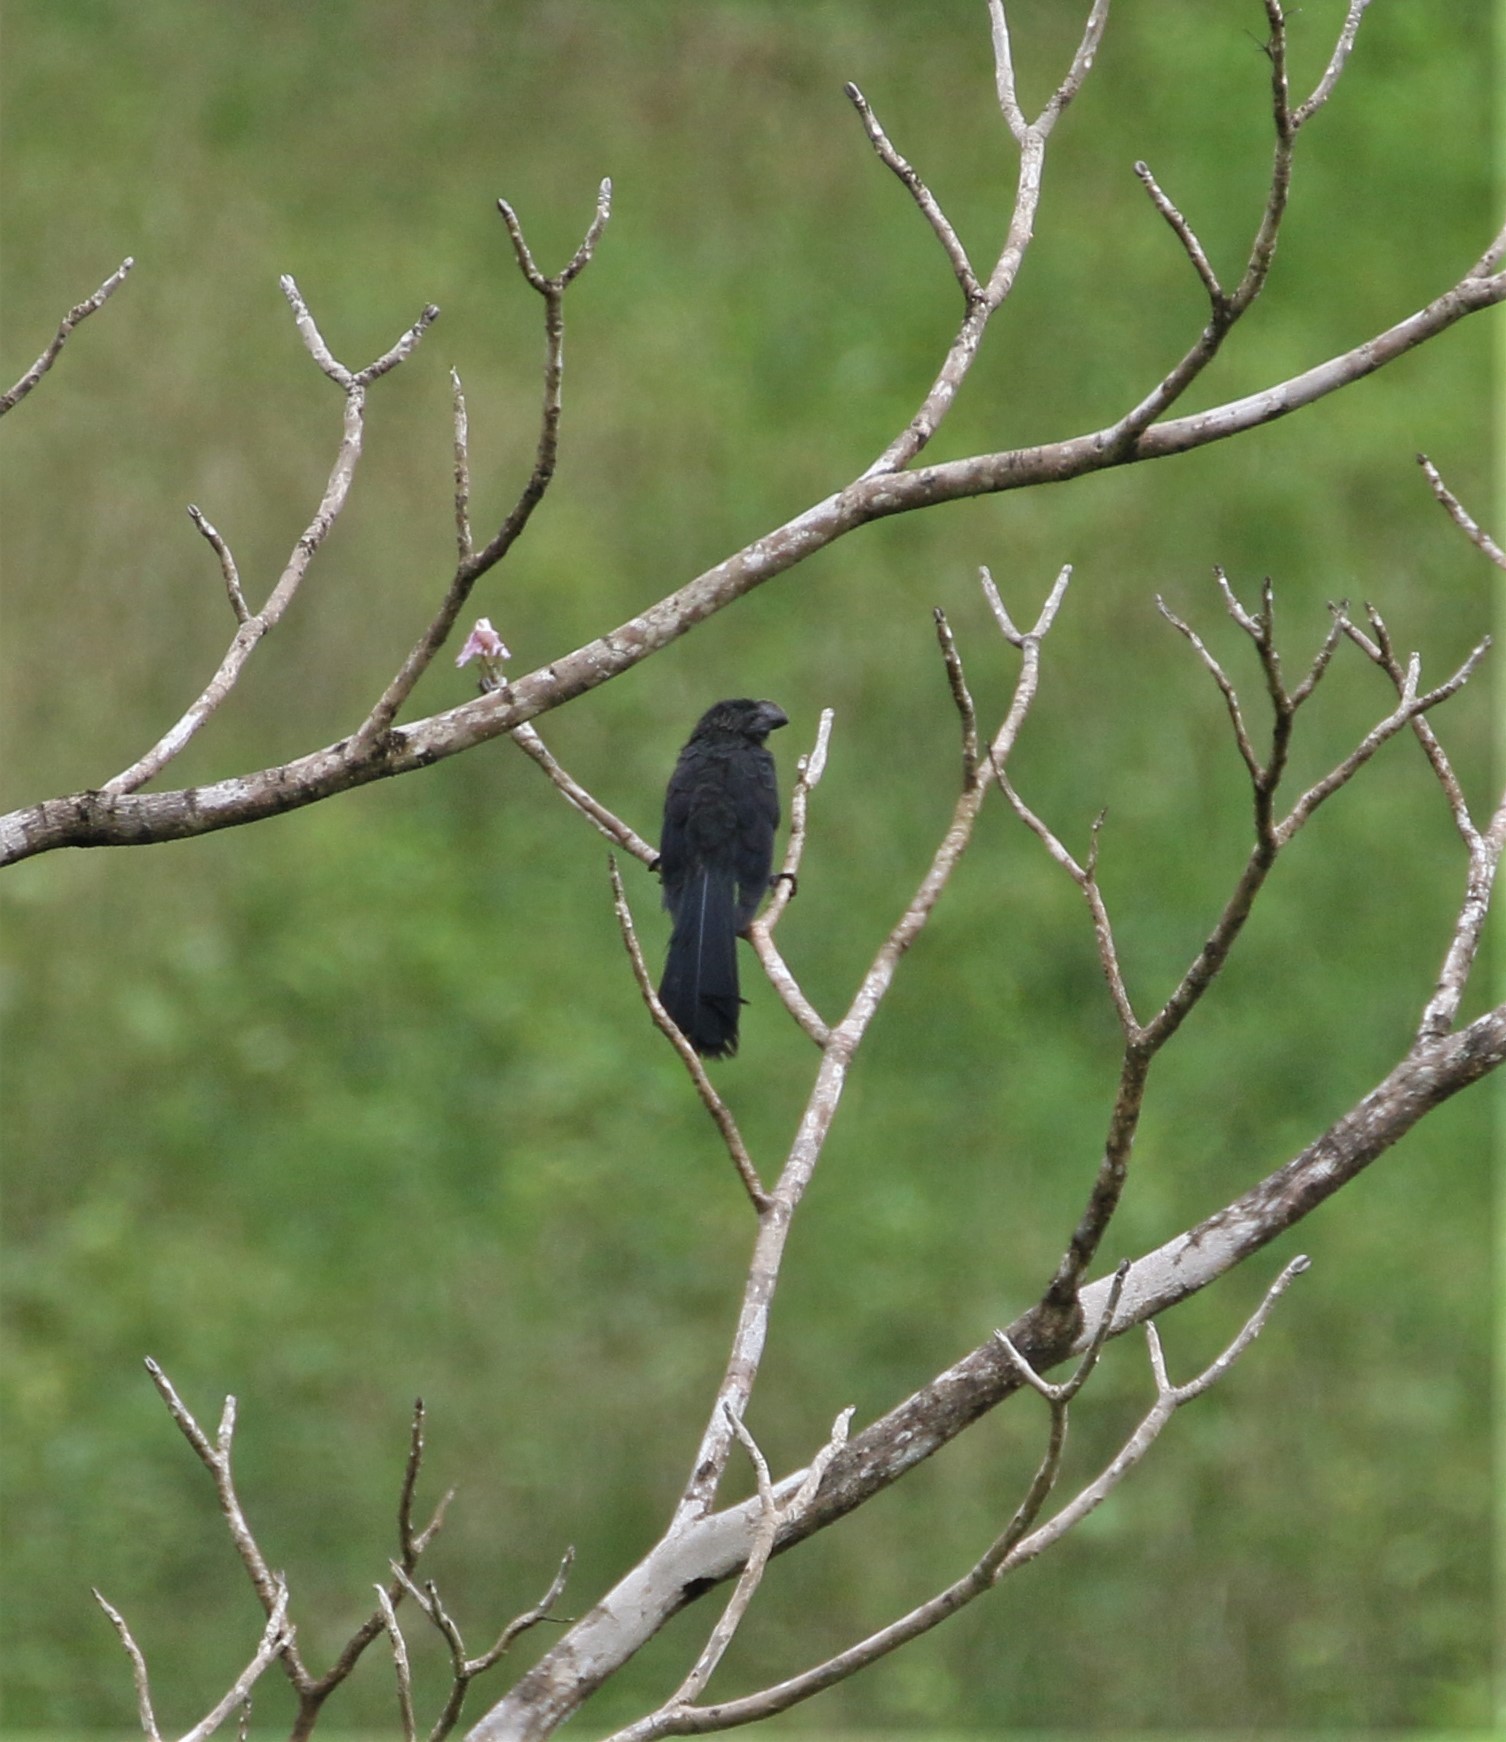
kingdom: Animalia
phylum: Chordata
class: Aves
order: Cuculiformes
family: Cuculidae
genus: Crotophaga
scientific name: Crotophaga ani
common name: Smooth-billed ani
